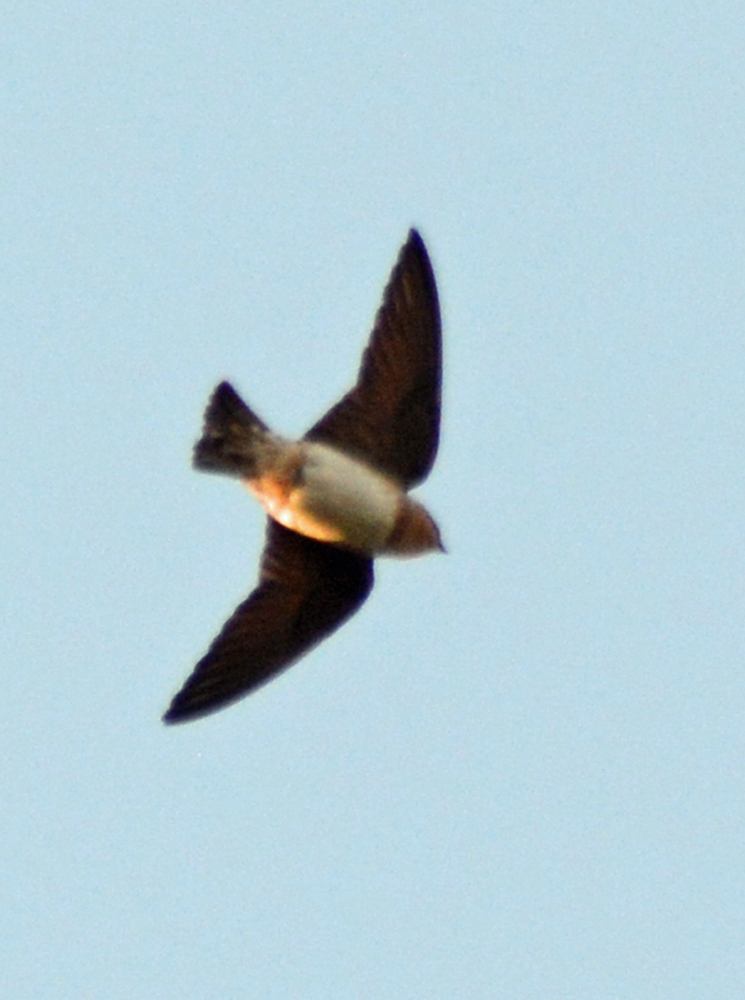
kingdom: Animalia
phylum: Chordata
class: Aves
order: Passeriformes
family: Hirundinidae
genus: Petrochelidon
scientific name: Petrochelidon fulva
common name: Cave swallow
